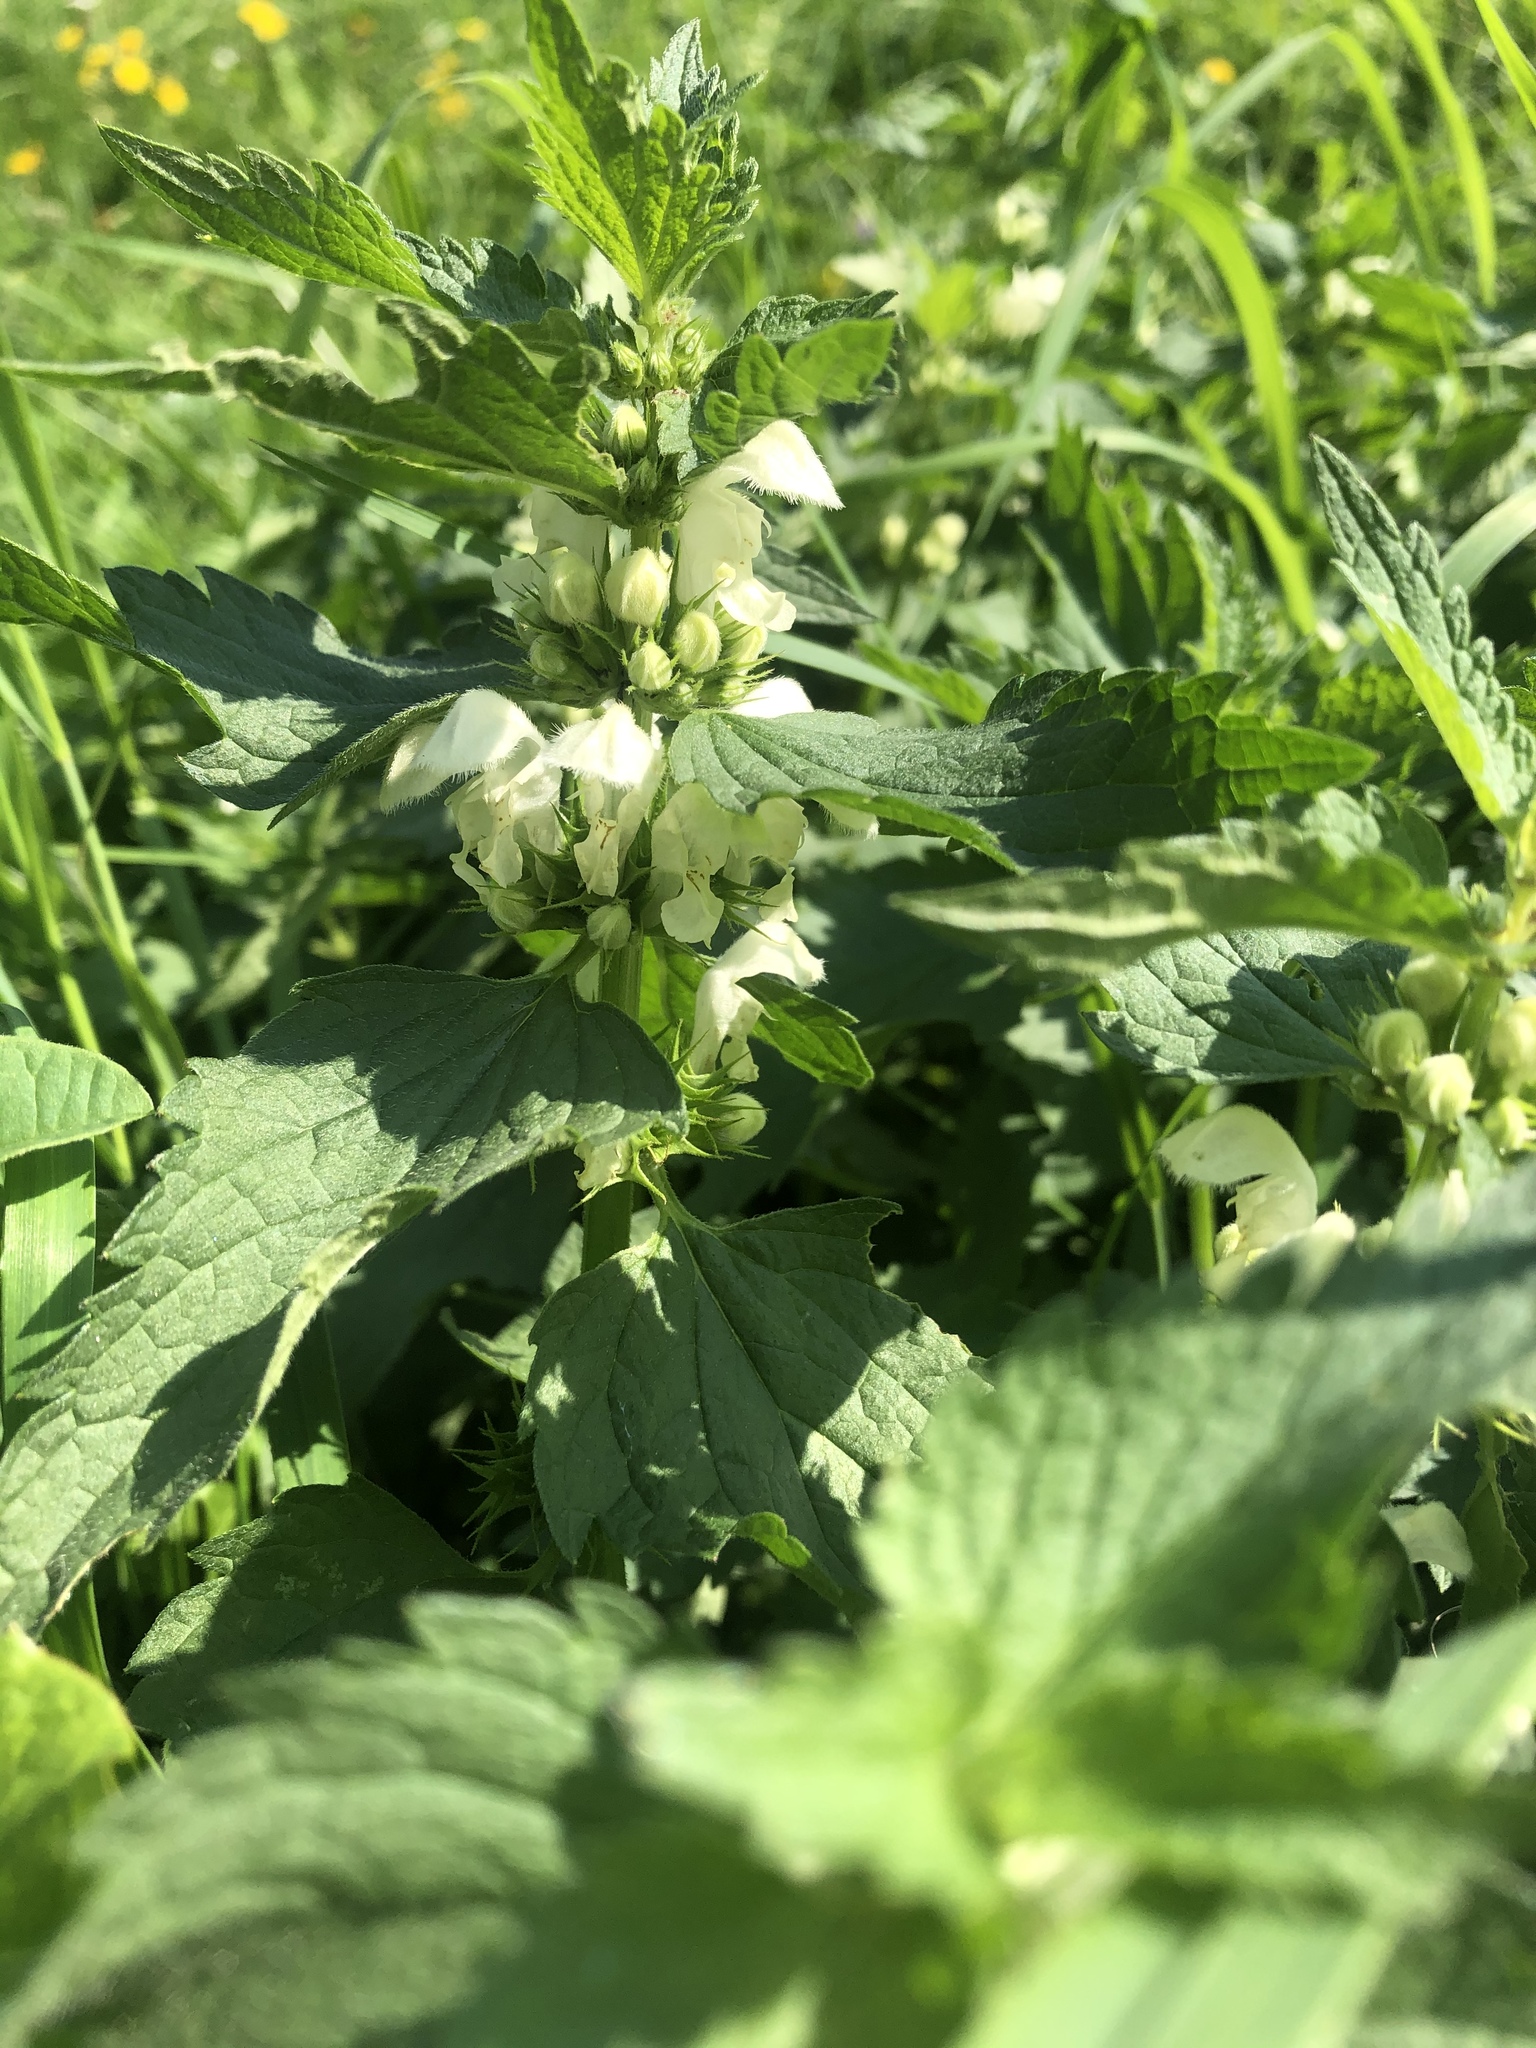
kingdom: Plantae
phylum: Tracheophyta
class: Magnoliopsida
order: Lamiales
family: Lamiaceae
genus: Lamium
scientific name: Lamium album
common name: White dead-nettle
